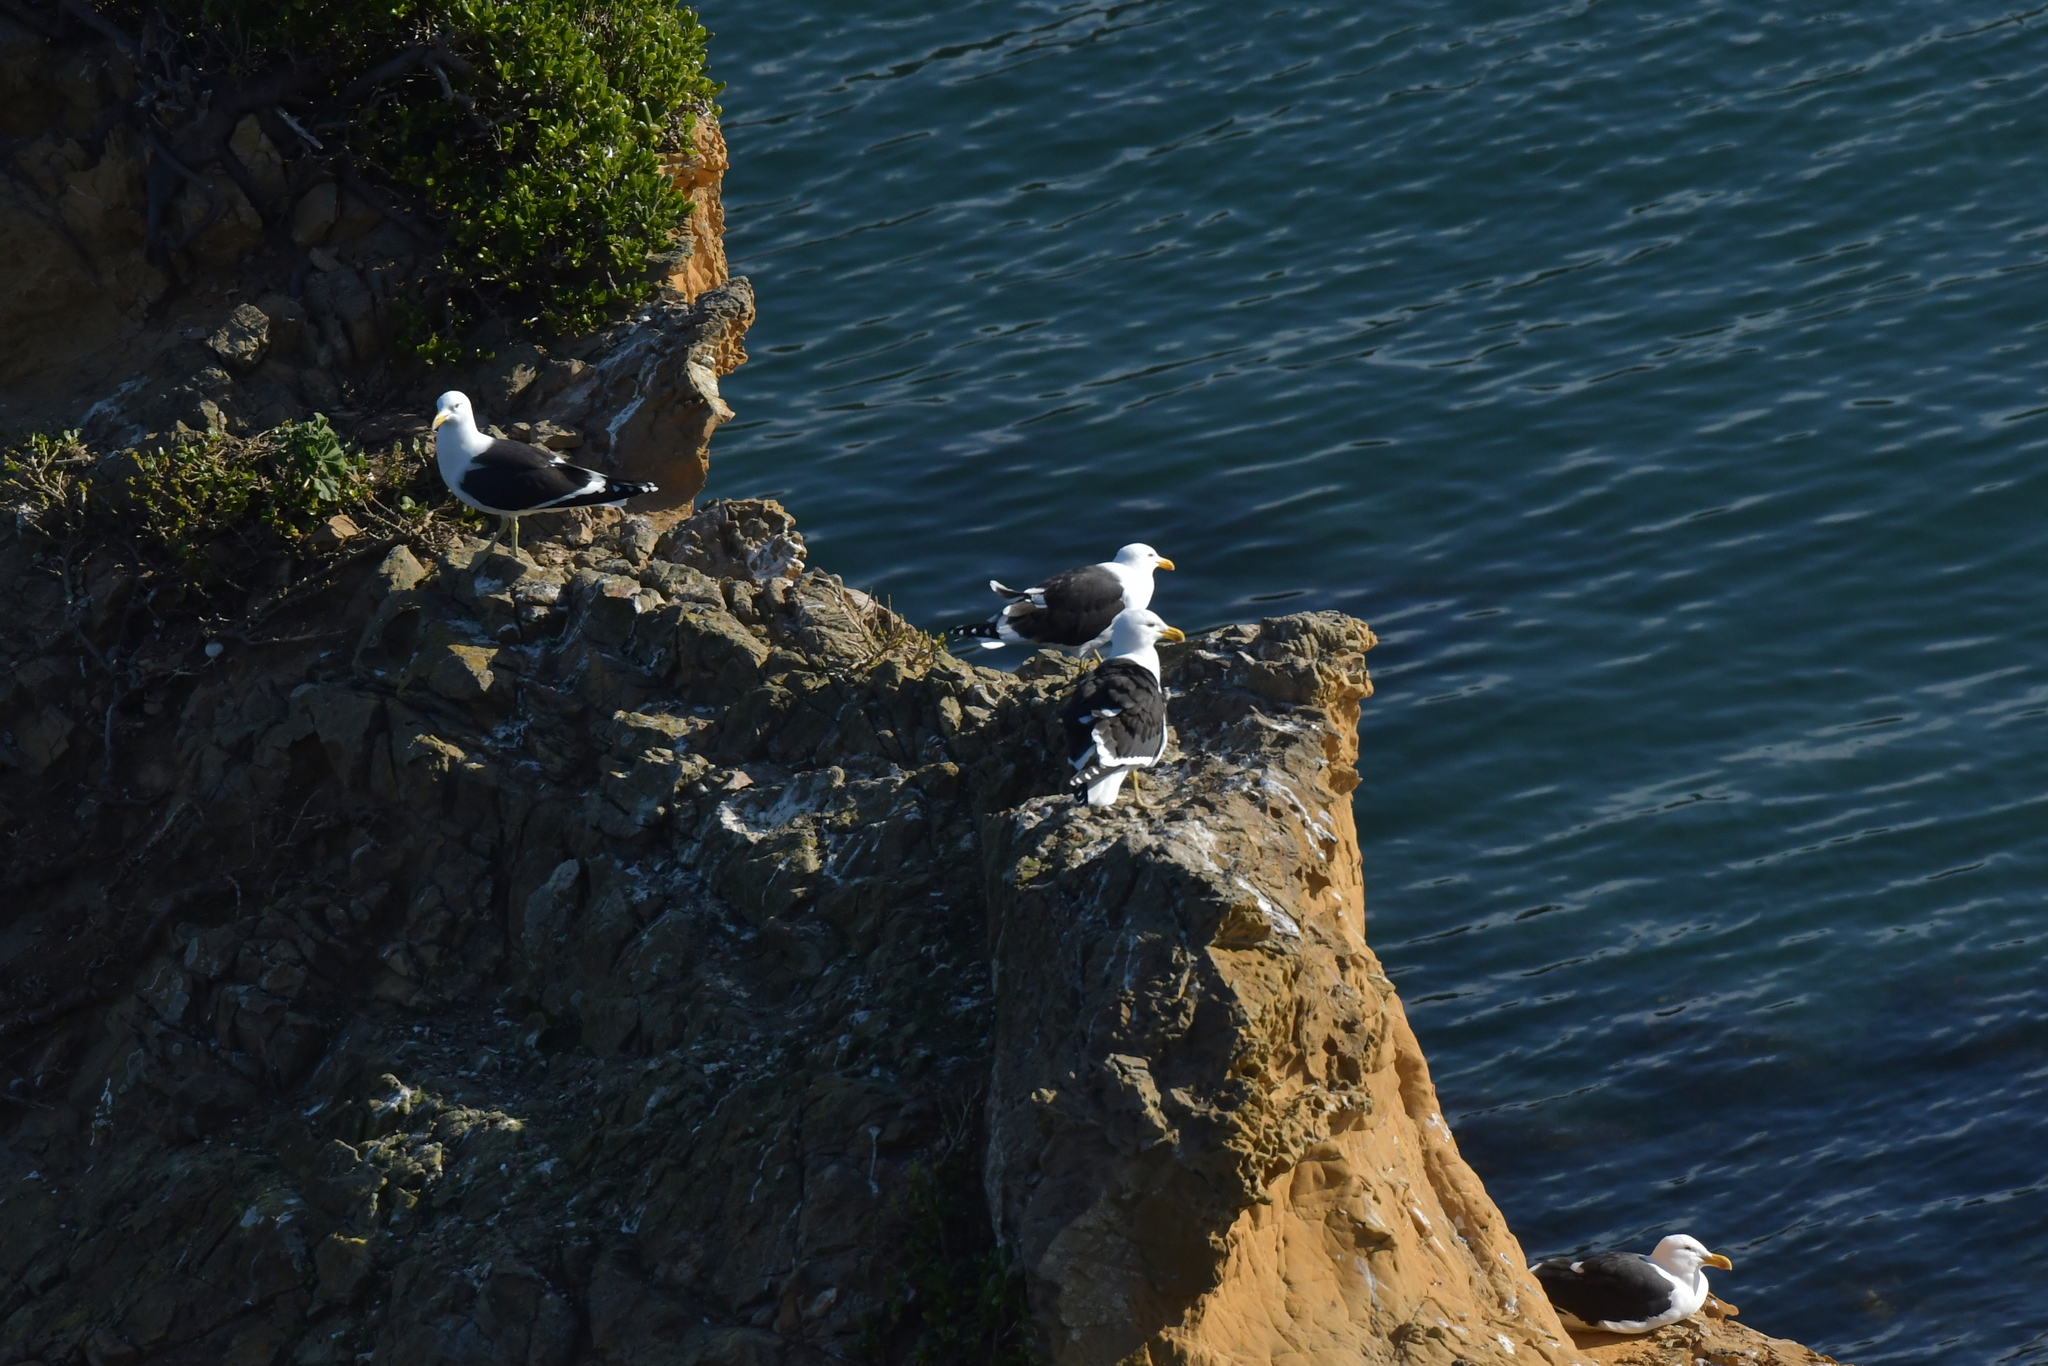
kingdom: Animalia
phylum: Chordata
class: Aves
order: Charadriiformes
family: Laridae
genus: Larus
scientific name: Larus dominicanus
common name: Kelp gull
